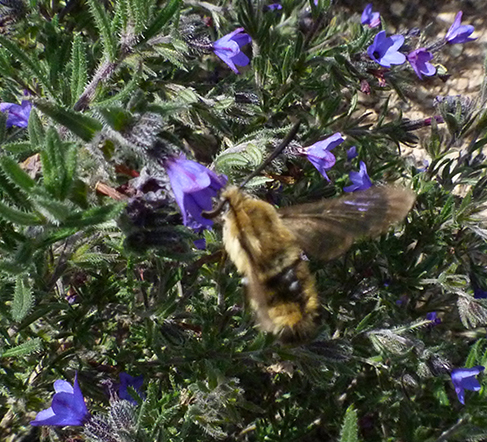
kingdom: Animalia
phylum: Arthropoda
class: Insecta
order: Lepidoptera
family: Sphingidae
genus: Hemaris
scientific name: Hemaris tityus
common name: Narrow-bordered bee hawk-moth
